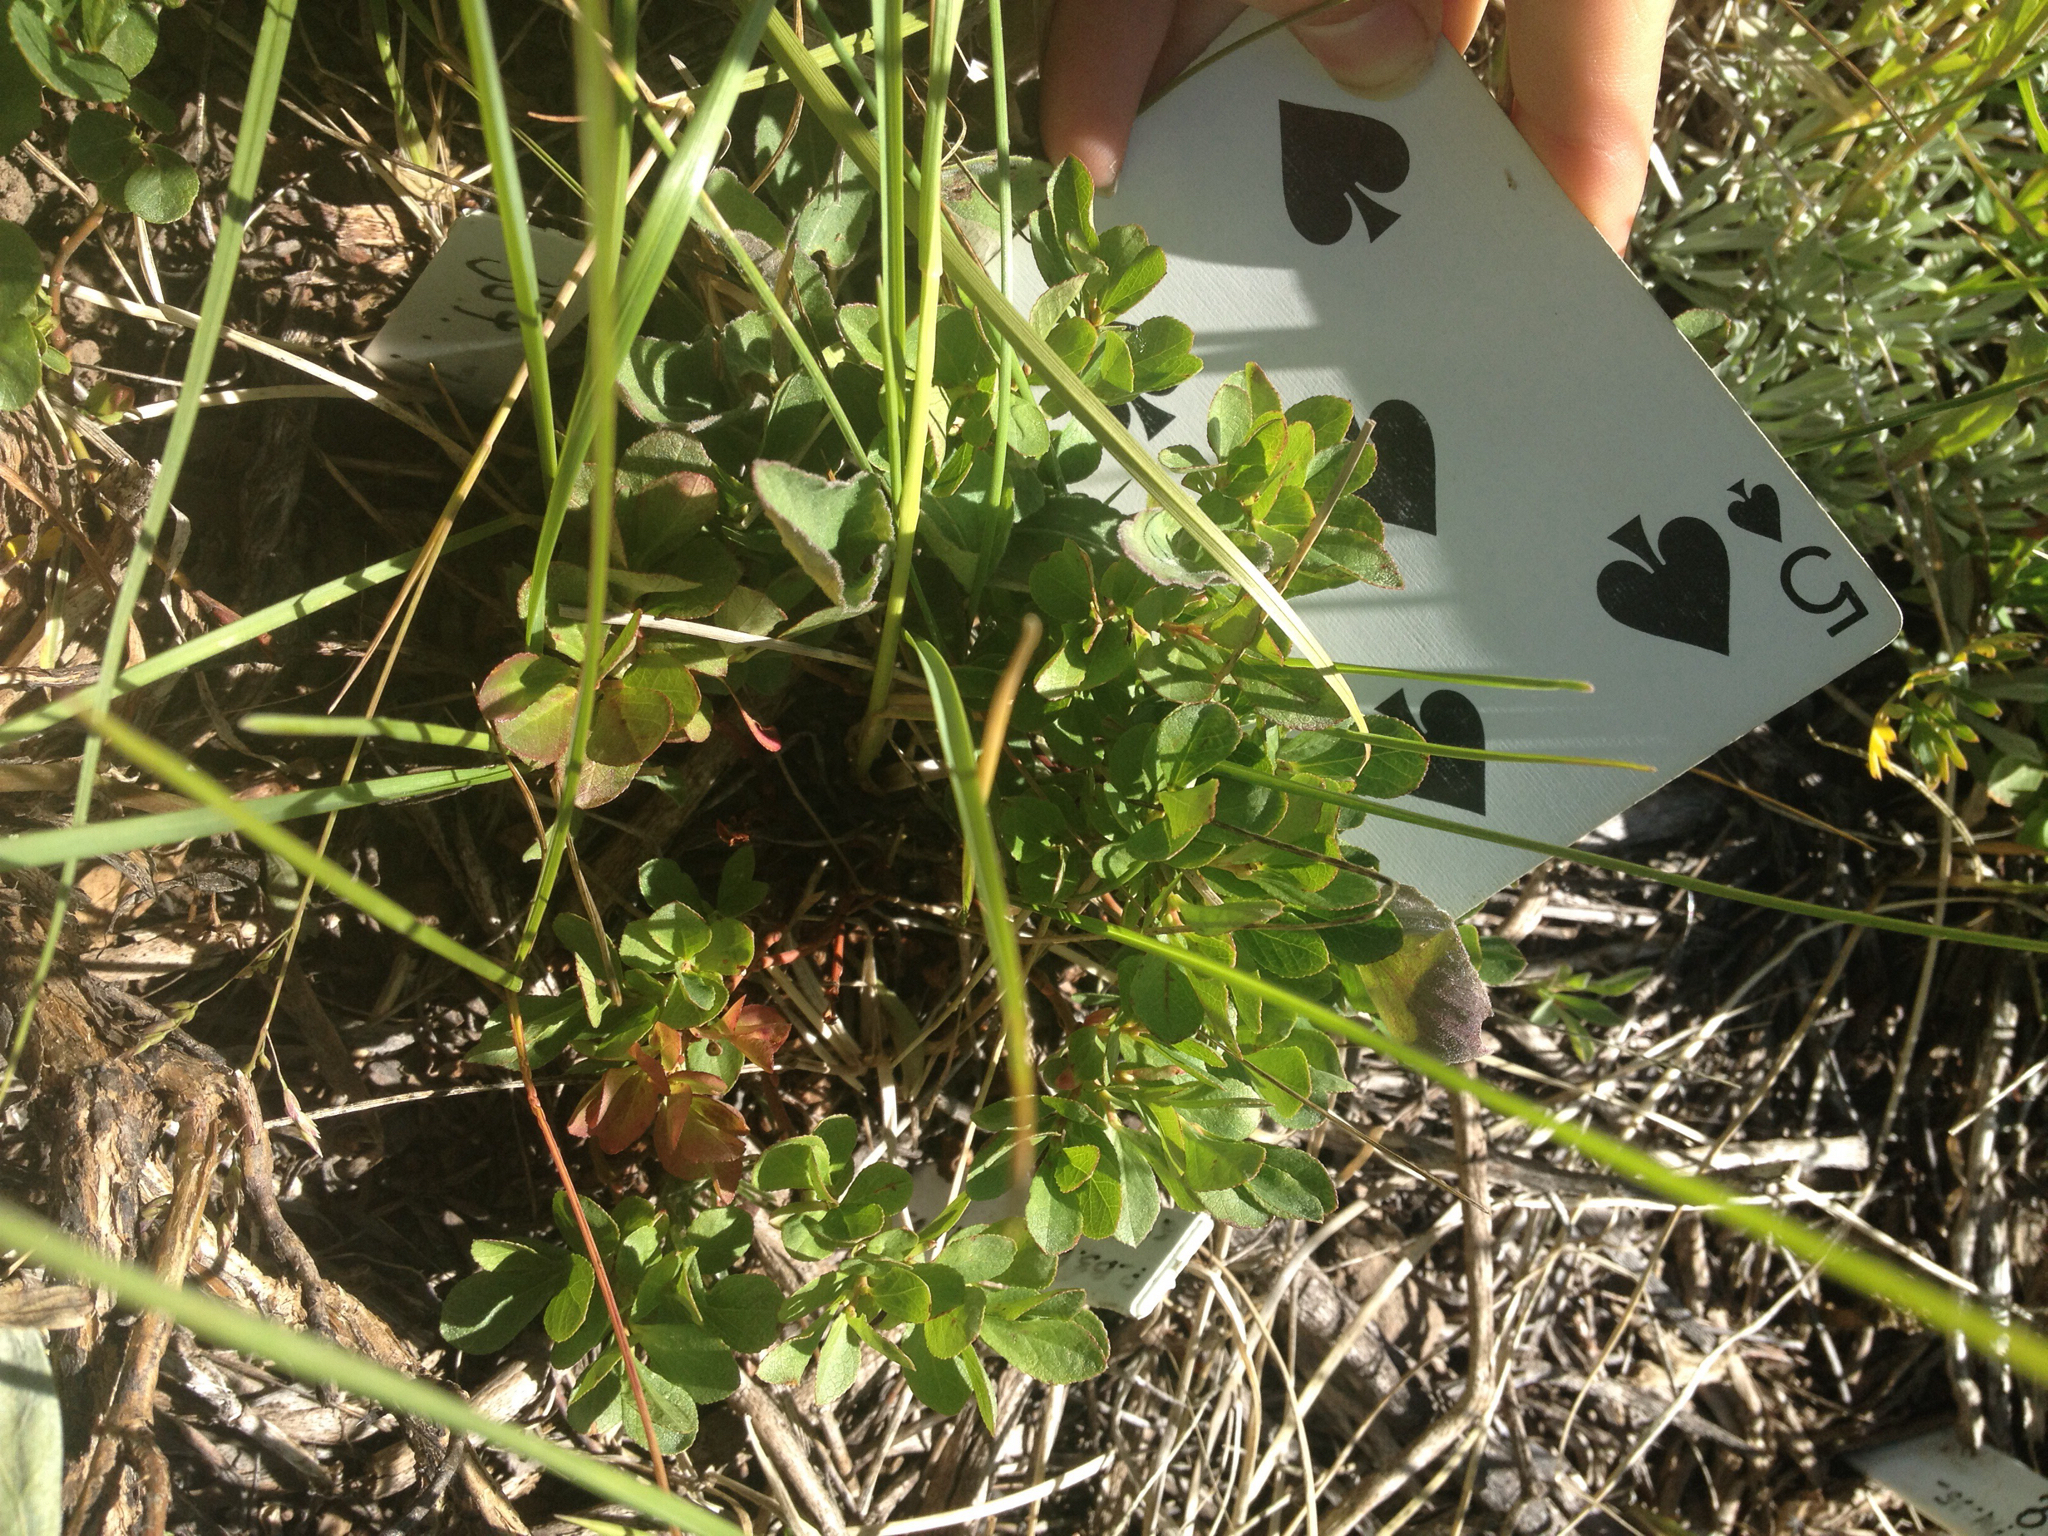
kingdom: Plantae
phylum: Tracheophyta
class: Magnoliopsida
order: Ericales
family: Ericaceae
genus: Vaccinium
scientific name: Vaccinium cespitosum
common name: Dwarf bilberry
